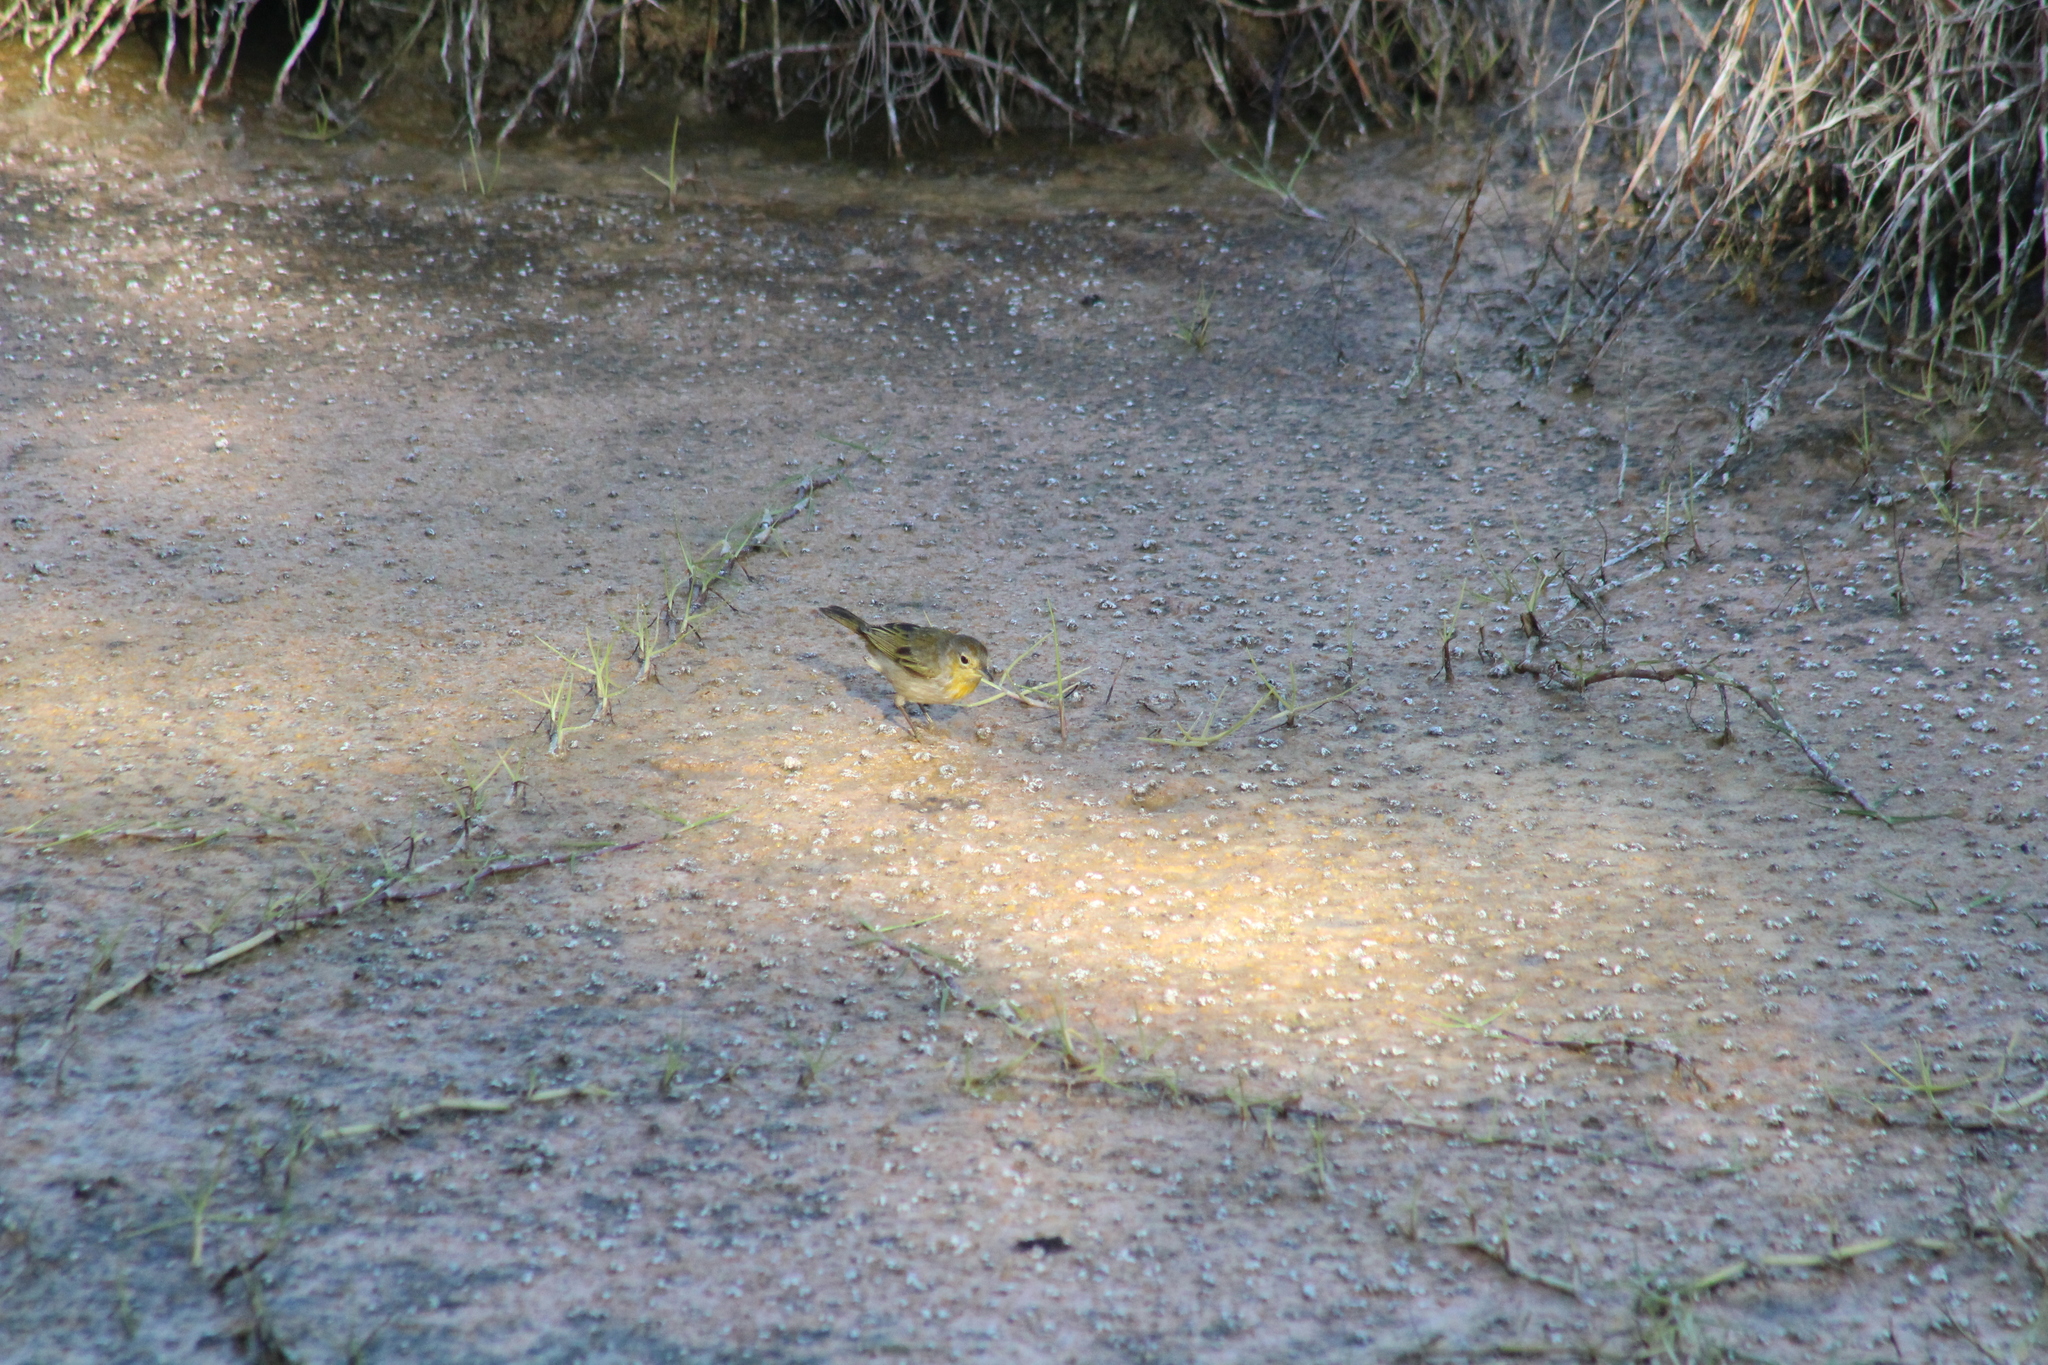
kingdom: Animalia
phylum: Chordata
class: Aves
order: Passeriformes
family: Parulidae
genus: Setophaga
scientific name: Setophaga petechia
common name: Yellow warbler
